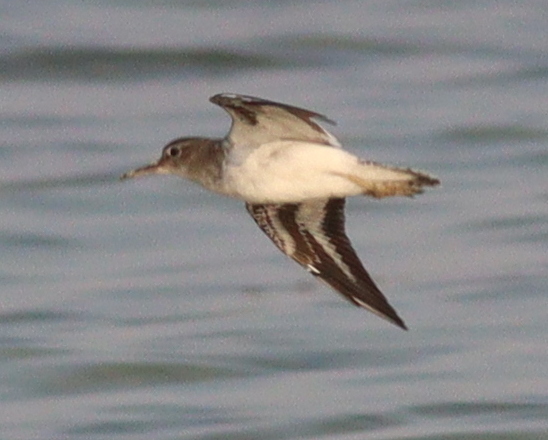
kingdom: Animalia
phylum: Chordata
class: Aves
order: Charadriiformes
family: Scolopacidae
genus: Actitis
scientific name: Actitis hypoleucos
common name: Common sandpiper
